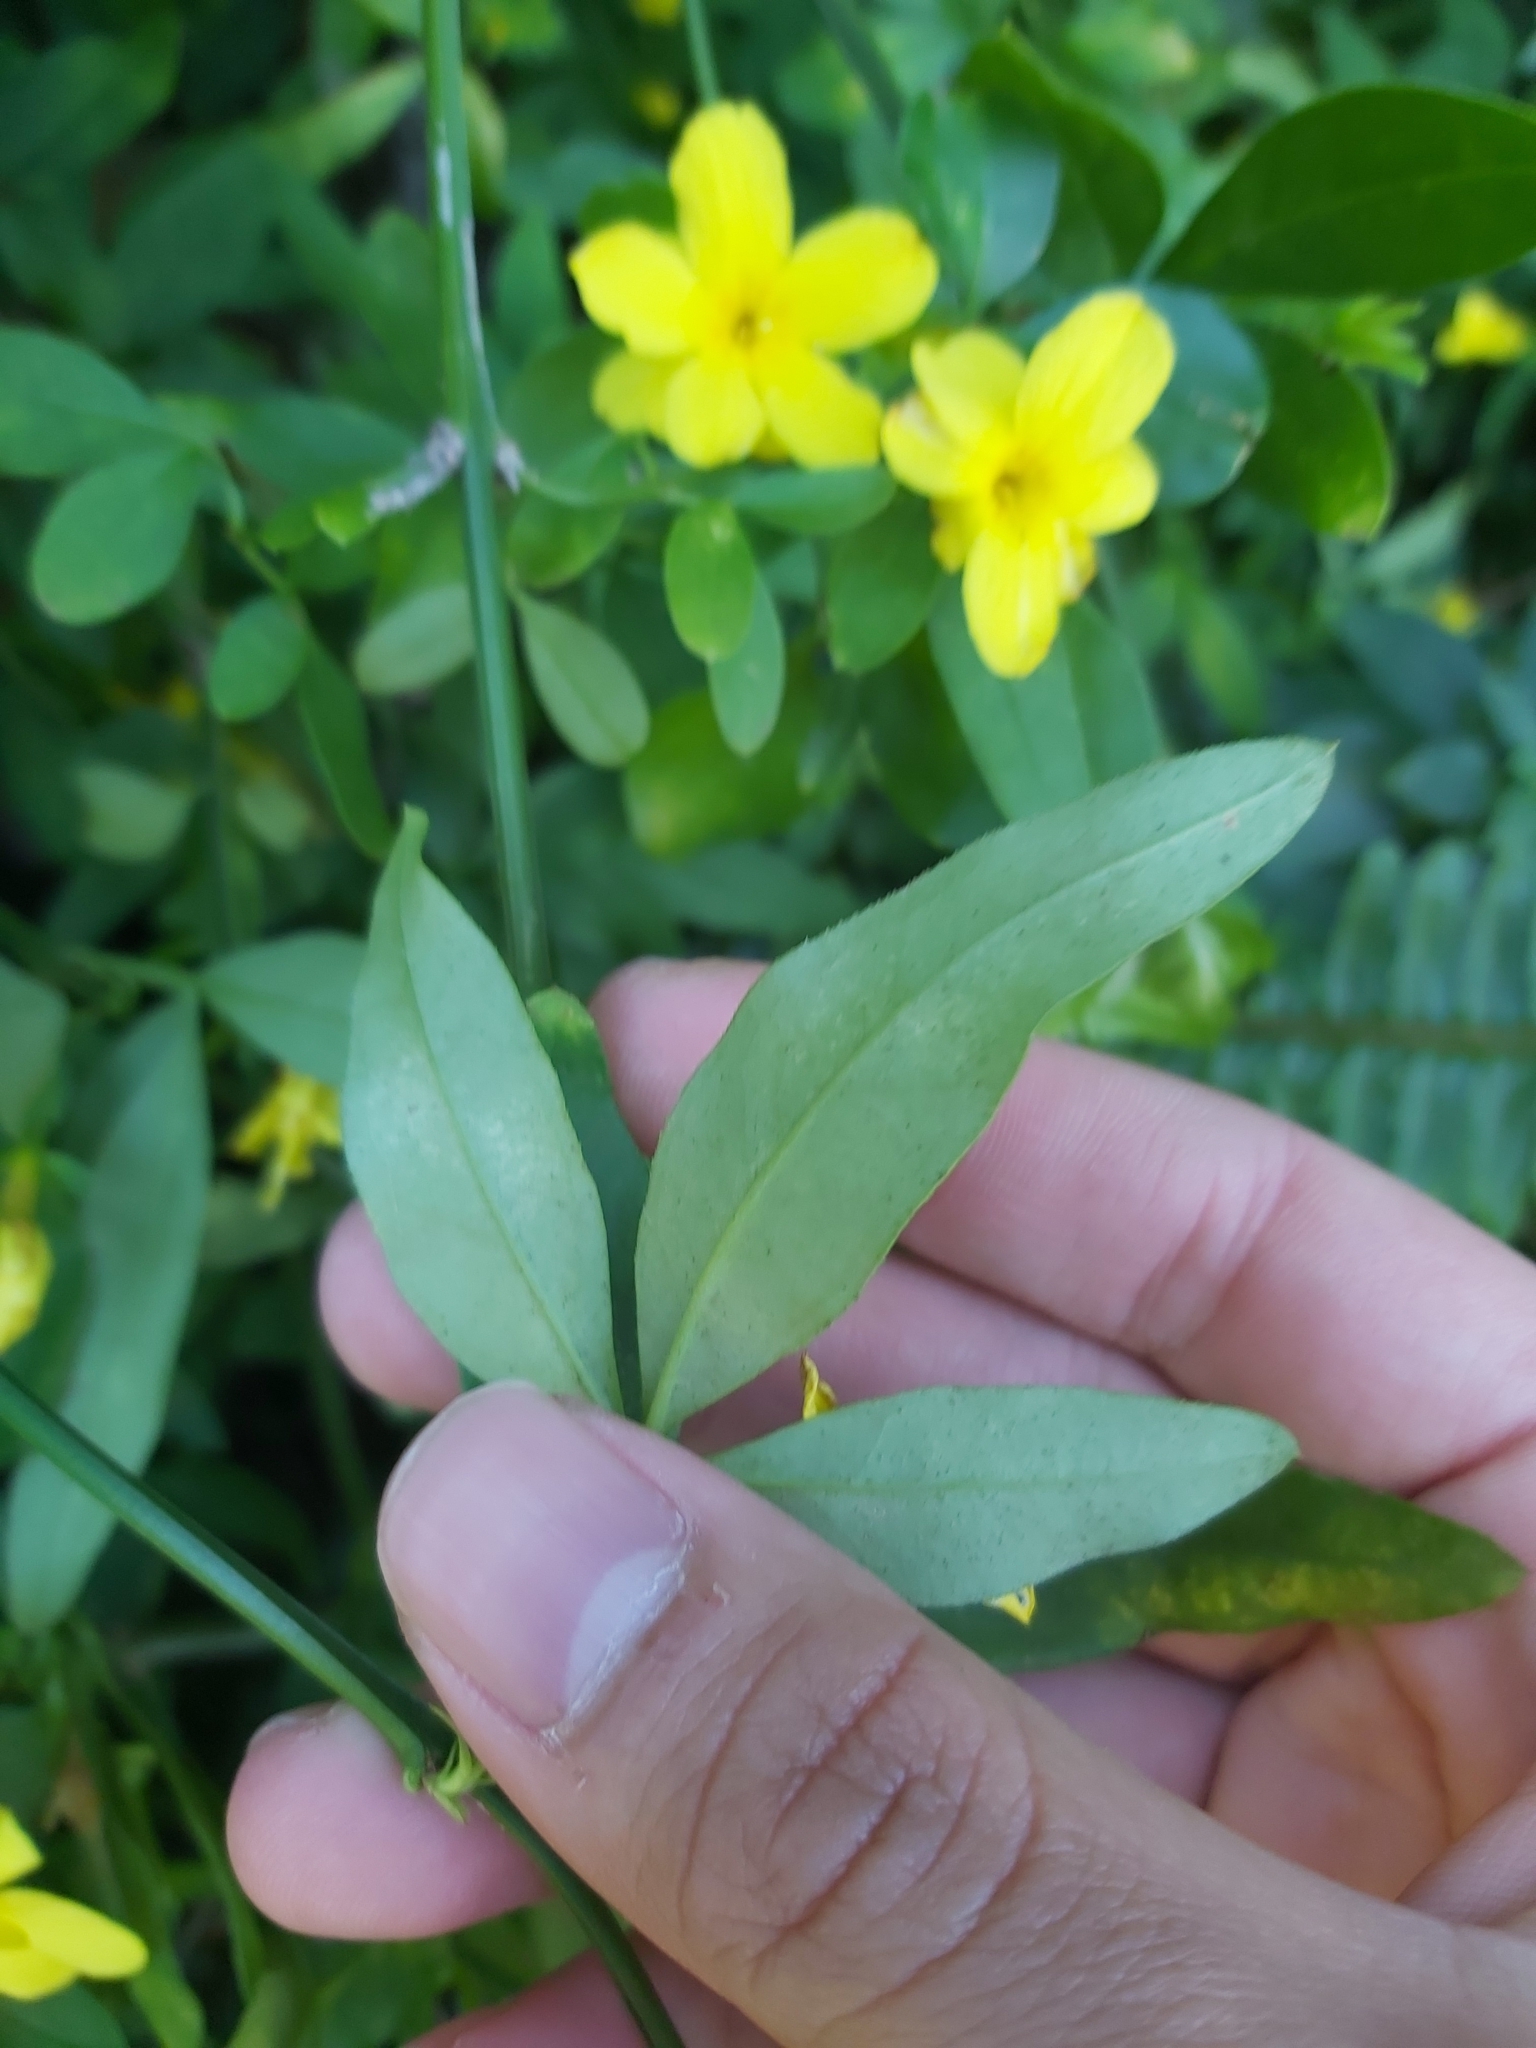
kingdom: Plantae
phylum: Tracheophyta
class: Magnoliopsida
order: Lamiales
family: Oleaceae
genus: Jasminum
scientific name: Jasminum mesnyi
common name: Japanese jasmine
